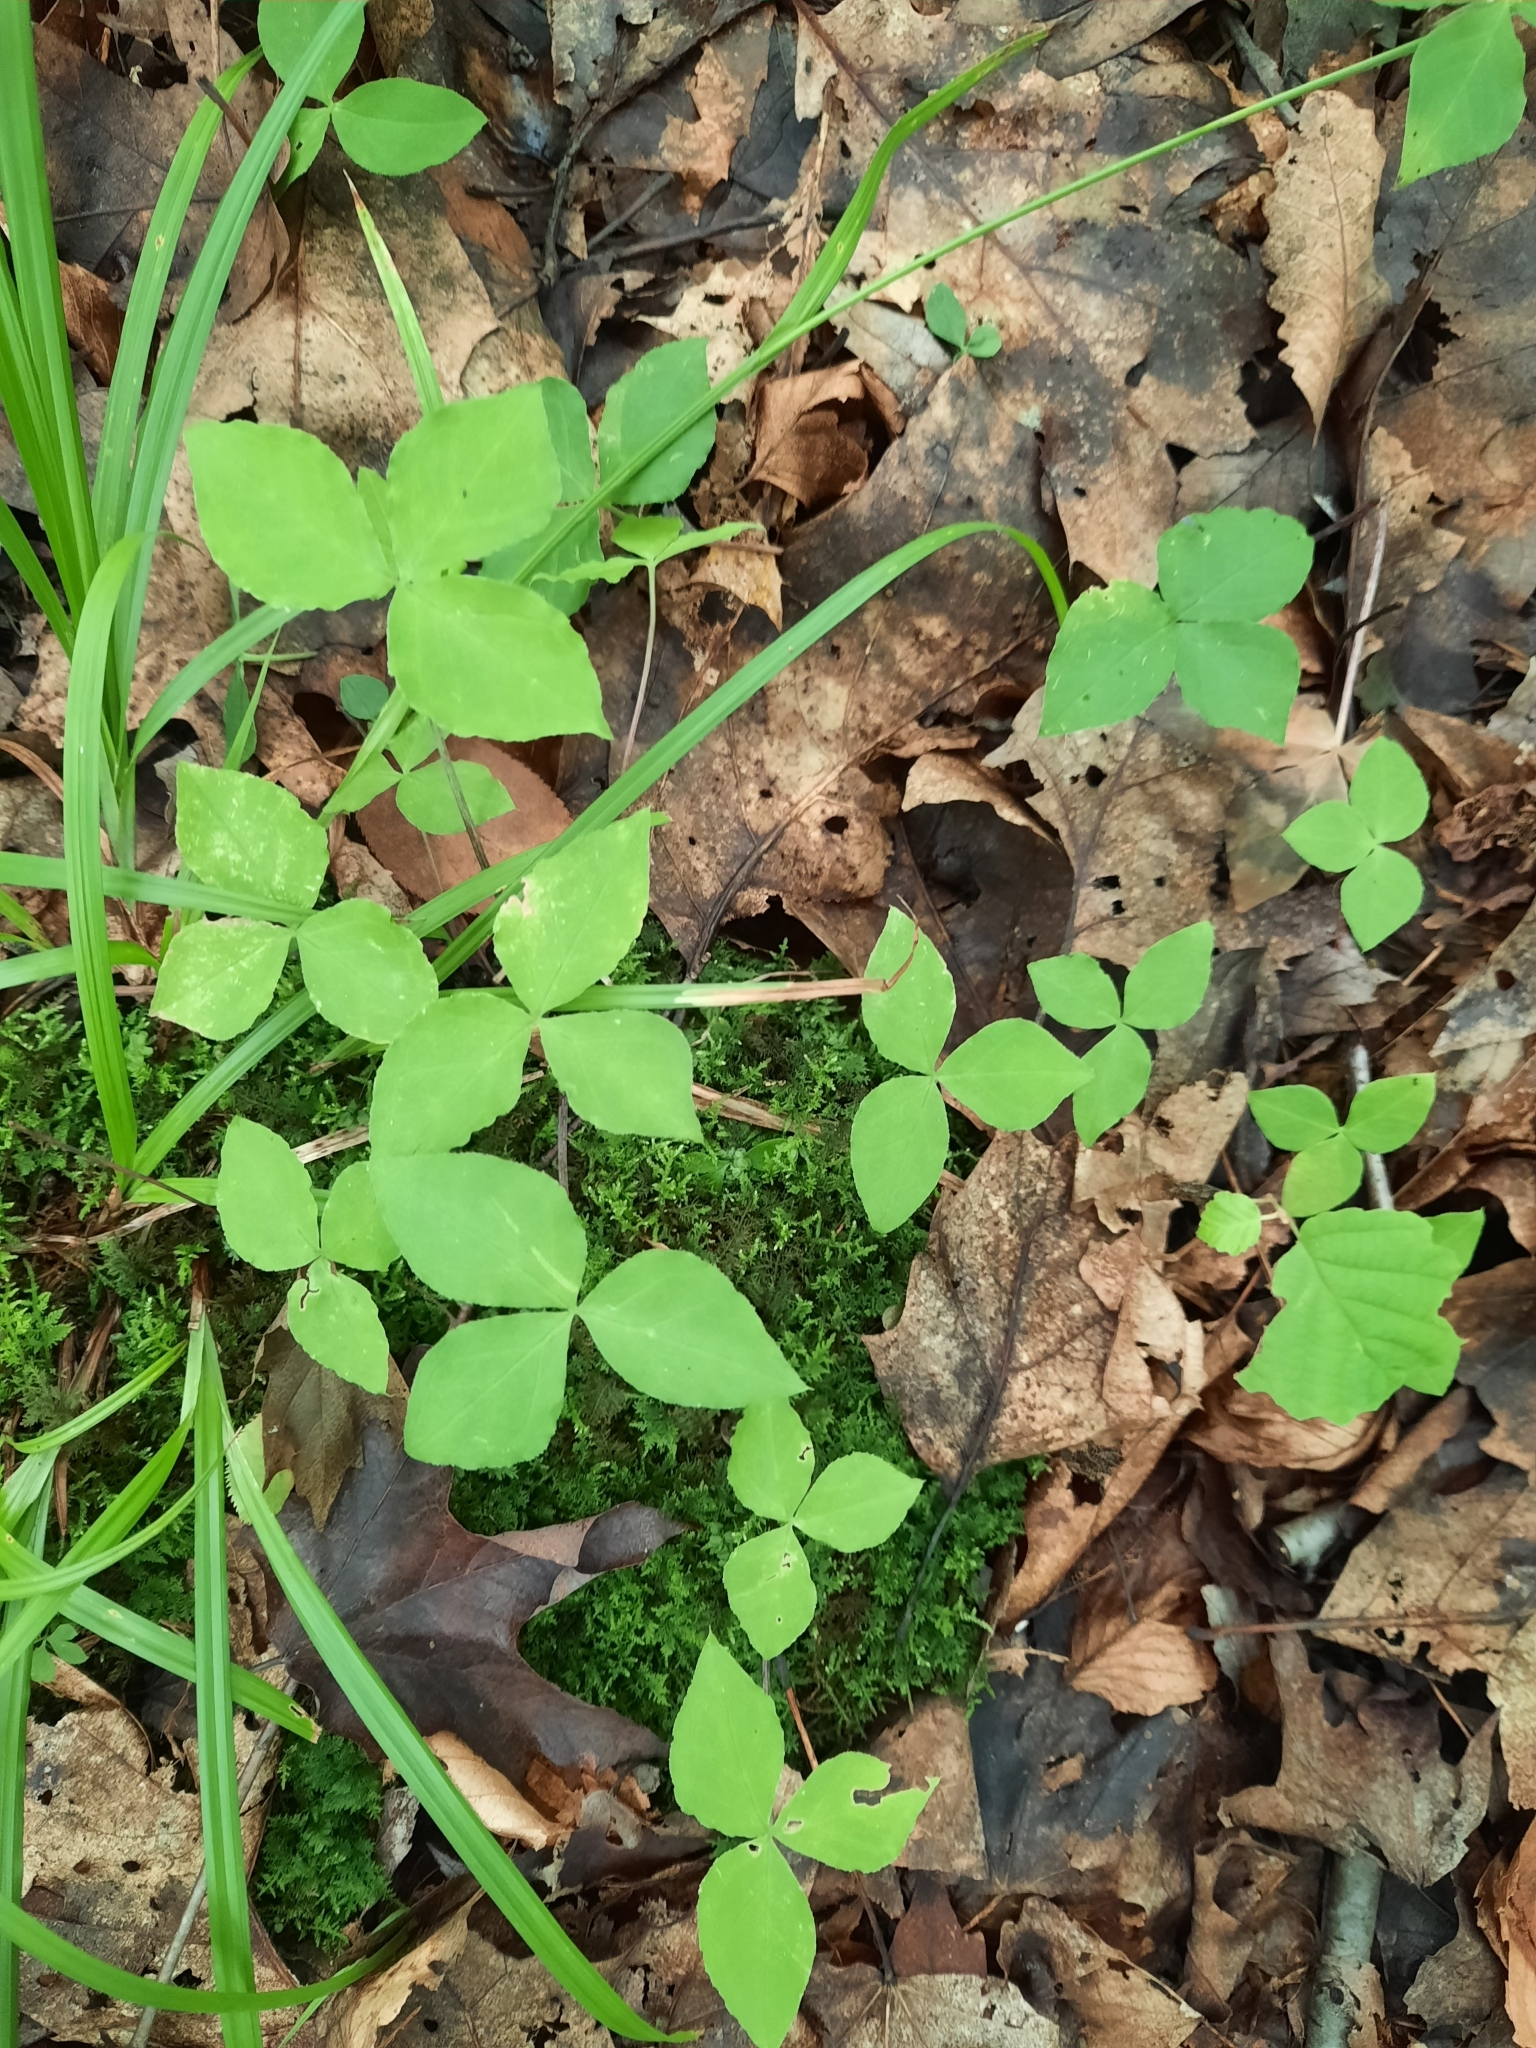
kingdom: Plantae
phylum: Tracheophyta
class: Liliopsida
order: Alismatales
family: Araceae
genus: Arisaema
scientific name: Arisaema triphyllum
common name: Jack-in-the-pulpit
